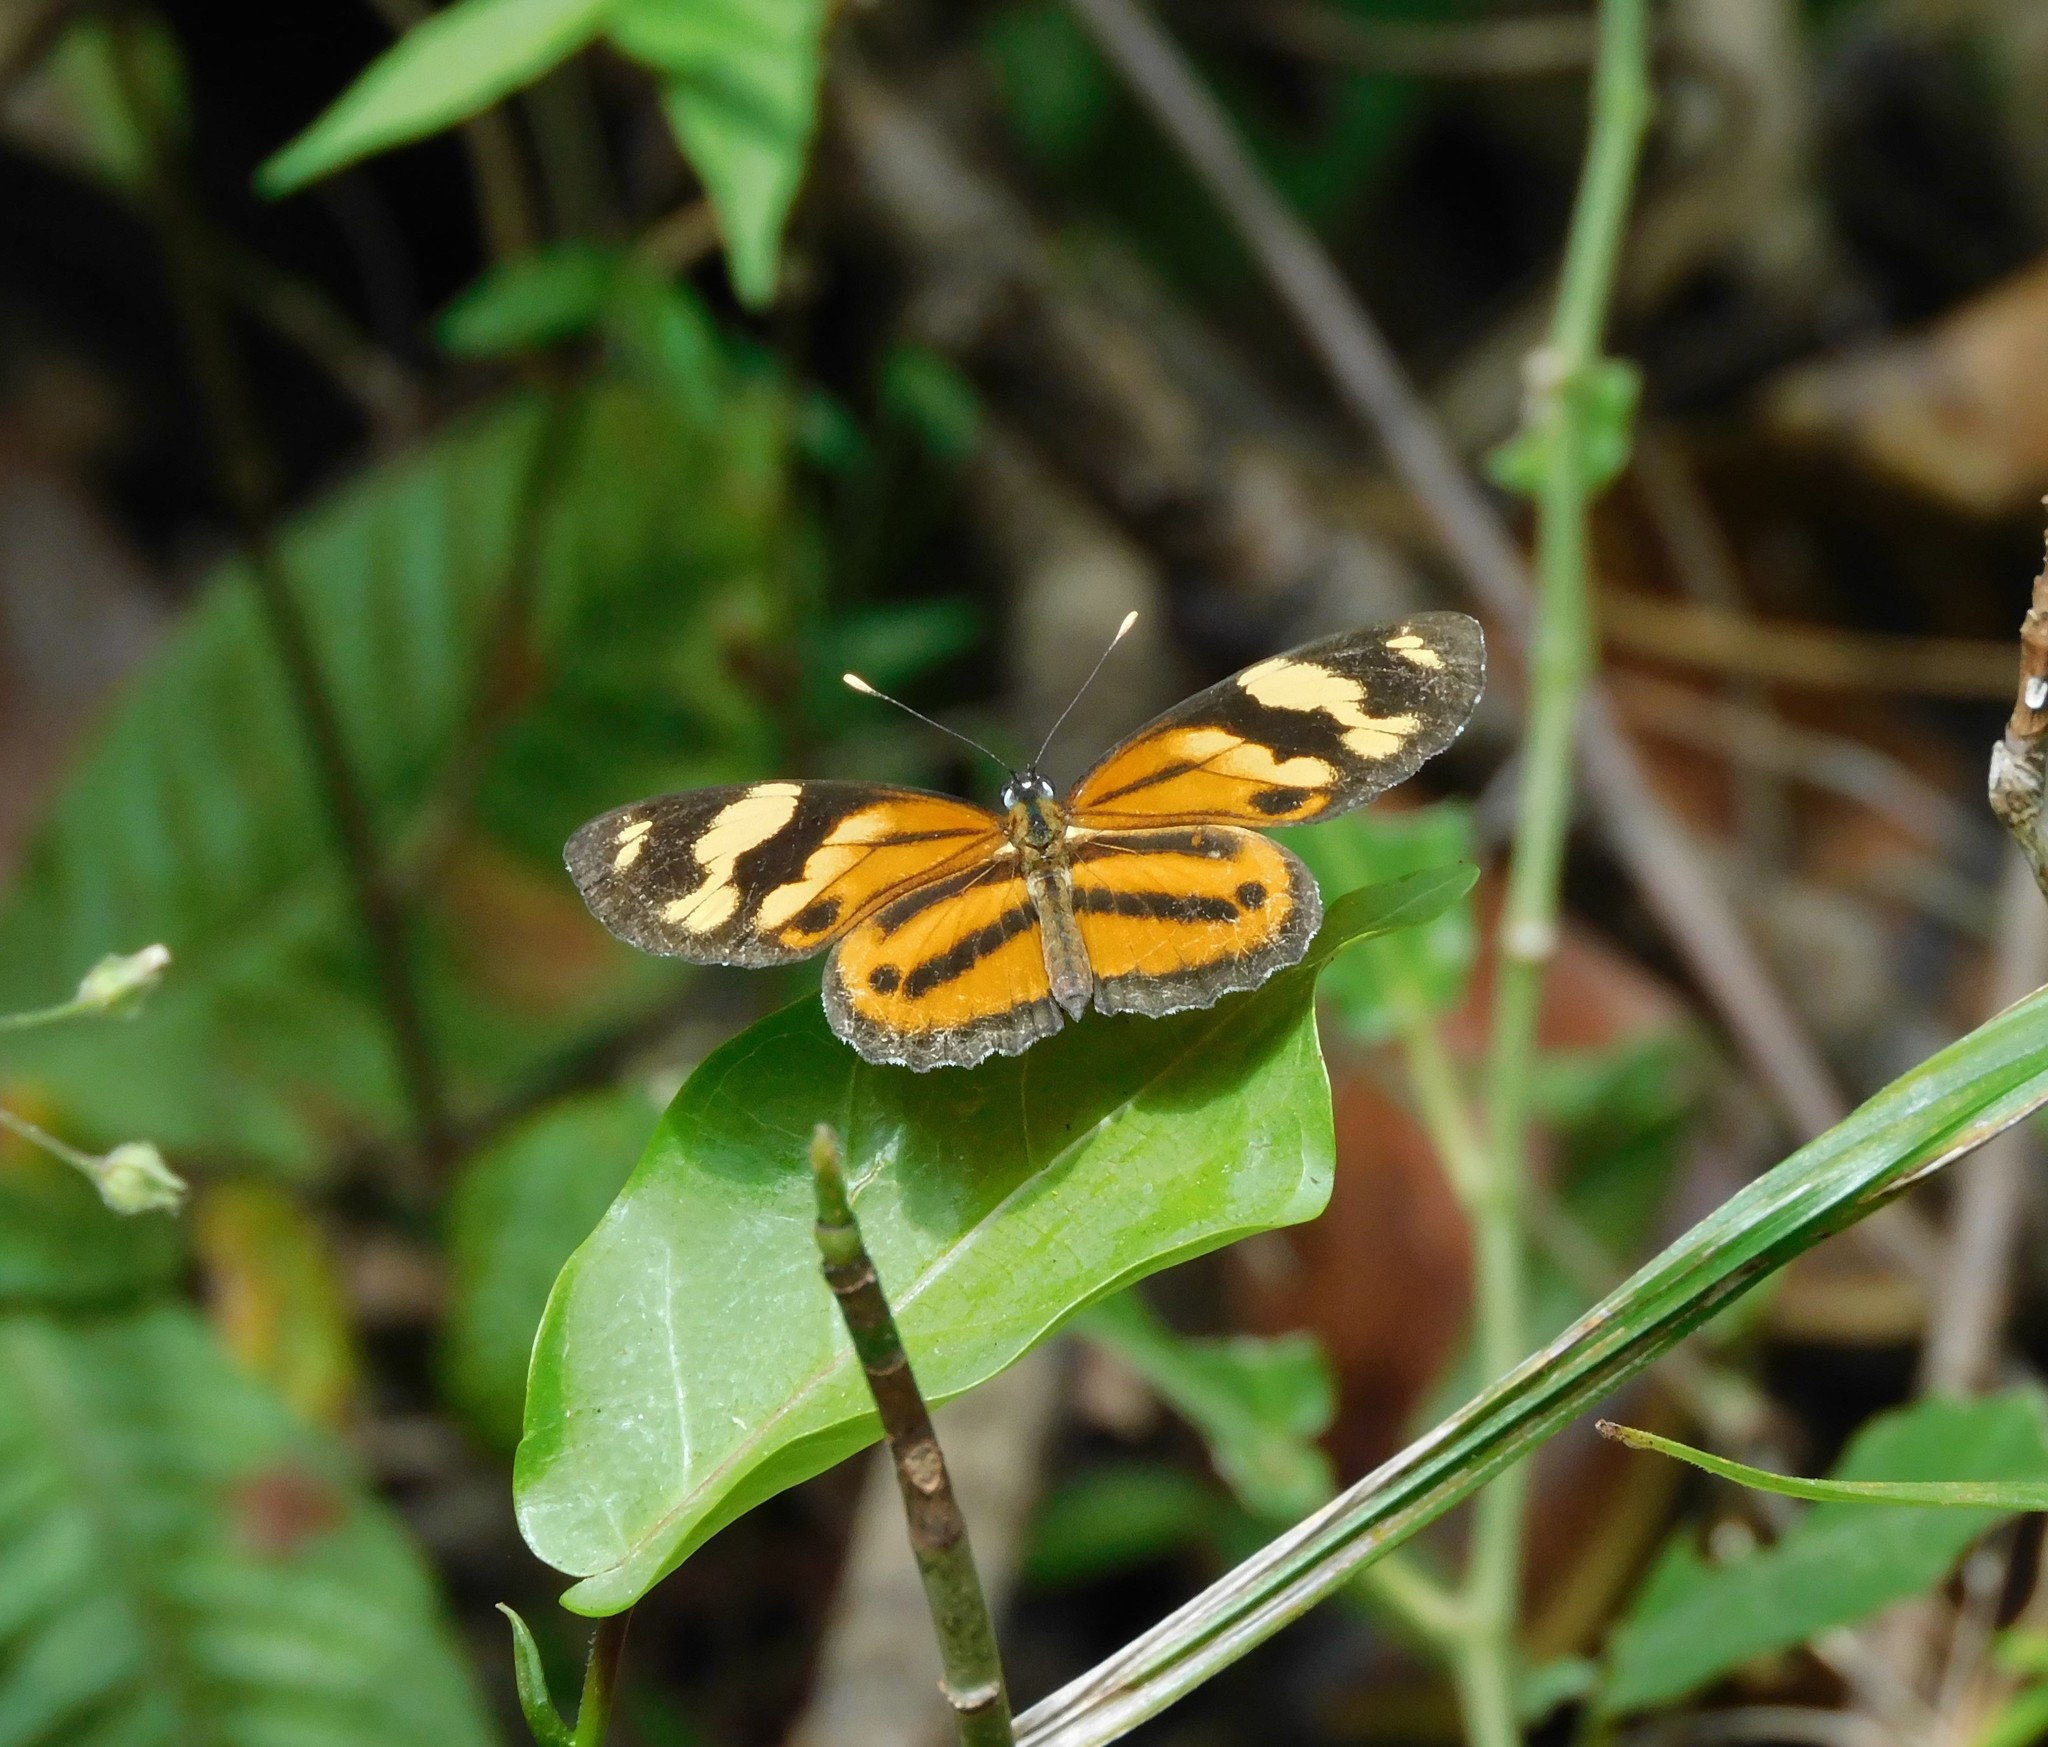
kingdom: Animalia
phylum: Arthropoda
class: Insecta
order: Lepidoptera
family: Nymphalidae
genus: Eresia
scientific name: Eresia eunice
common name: Tiger crescent
